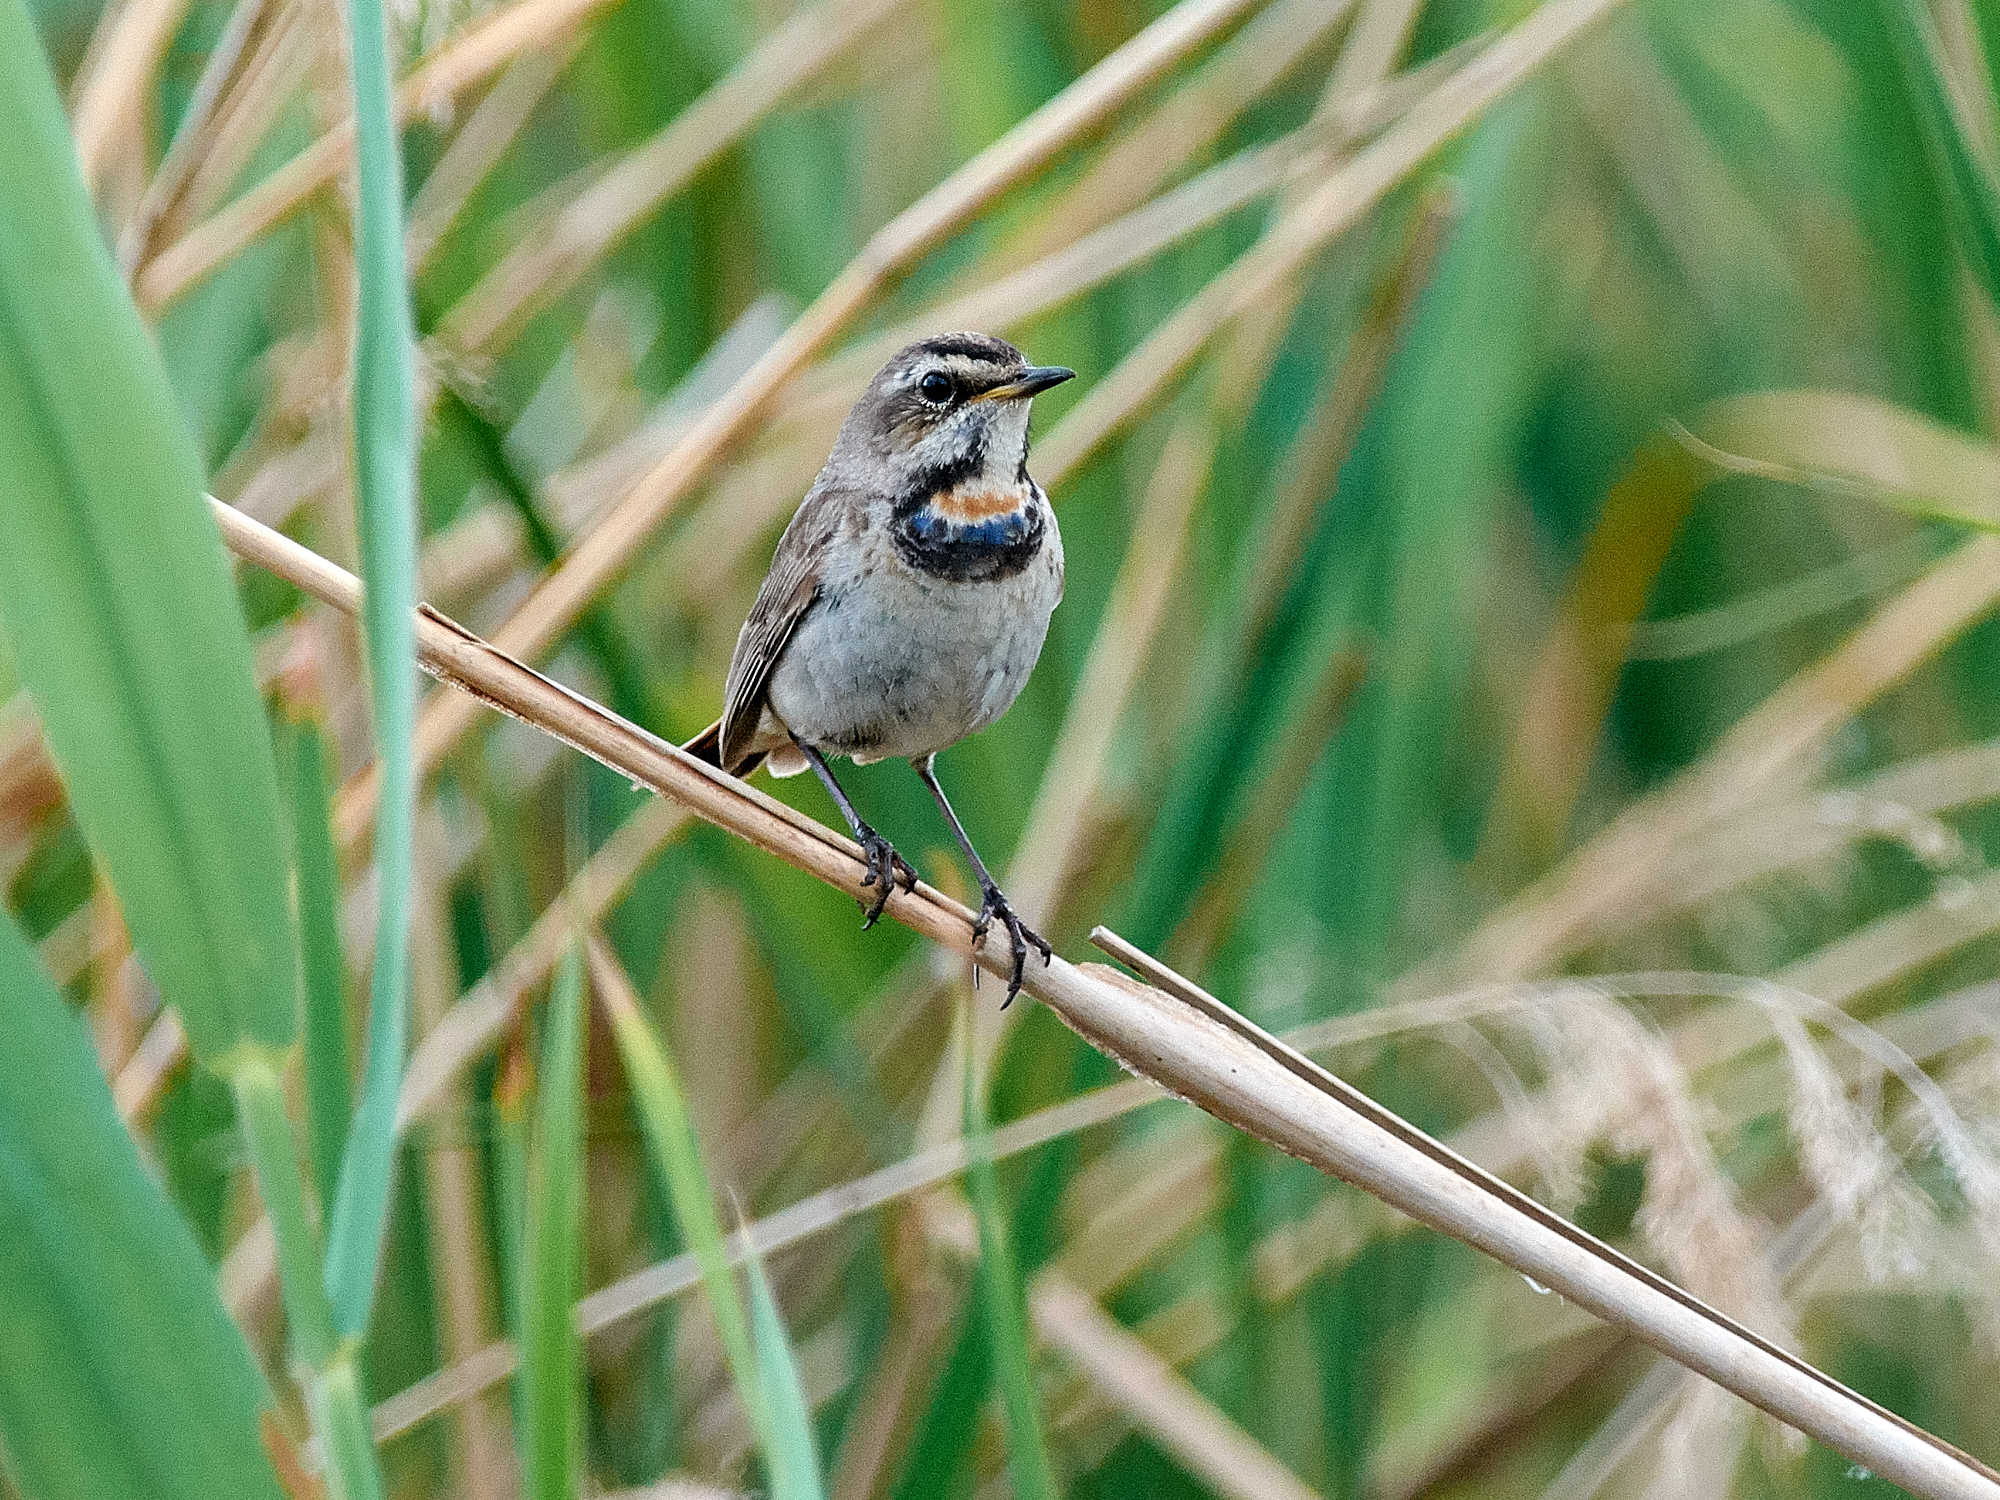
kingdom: Animalia
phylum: Chordata
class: Aves
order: Passeriformes
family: Muscicapidae
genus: Luscinia
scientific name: Luscinia svecica
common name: Bluethroat
